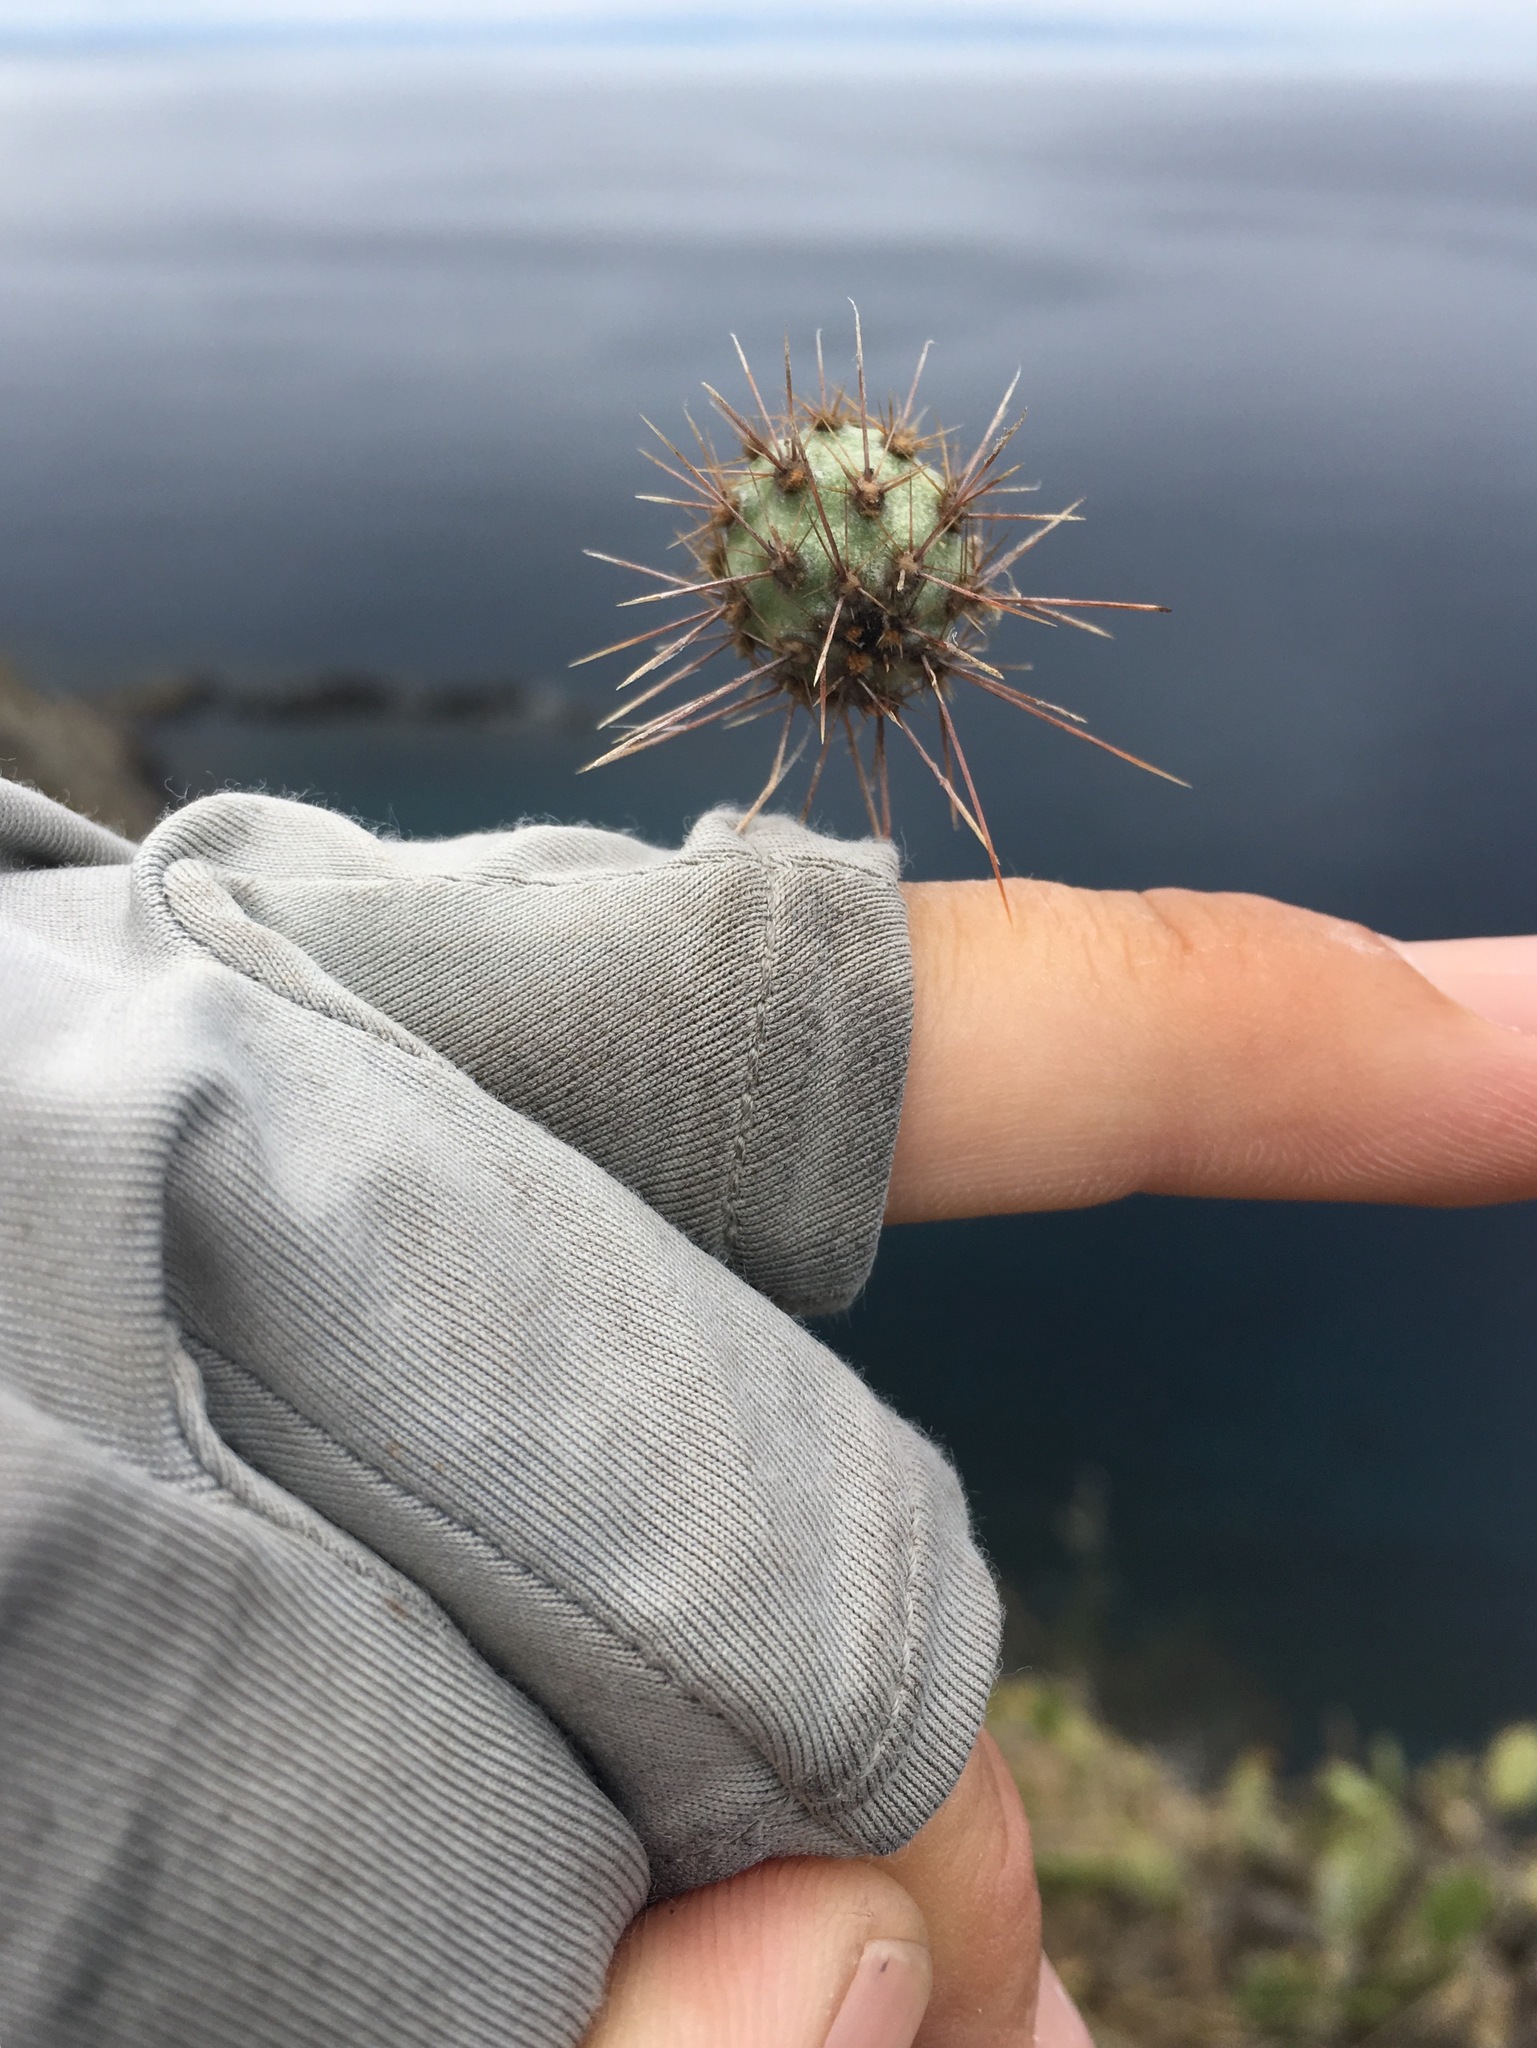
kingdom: Plantae
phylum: Tracheophyta
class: Magnoliopsida
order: Caryophyllales
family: Cactaceae
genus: Cylindropuntia
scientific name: Cylindropuntia prolifera
